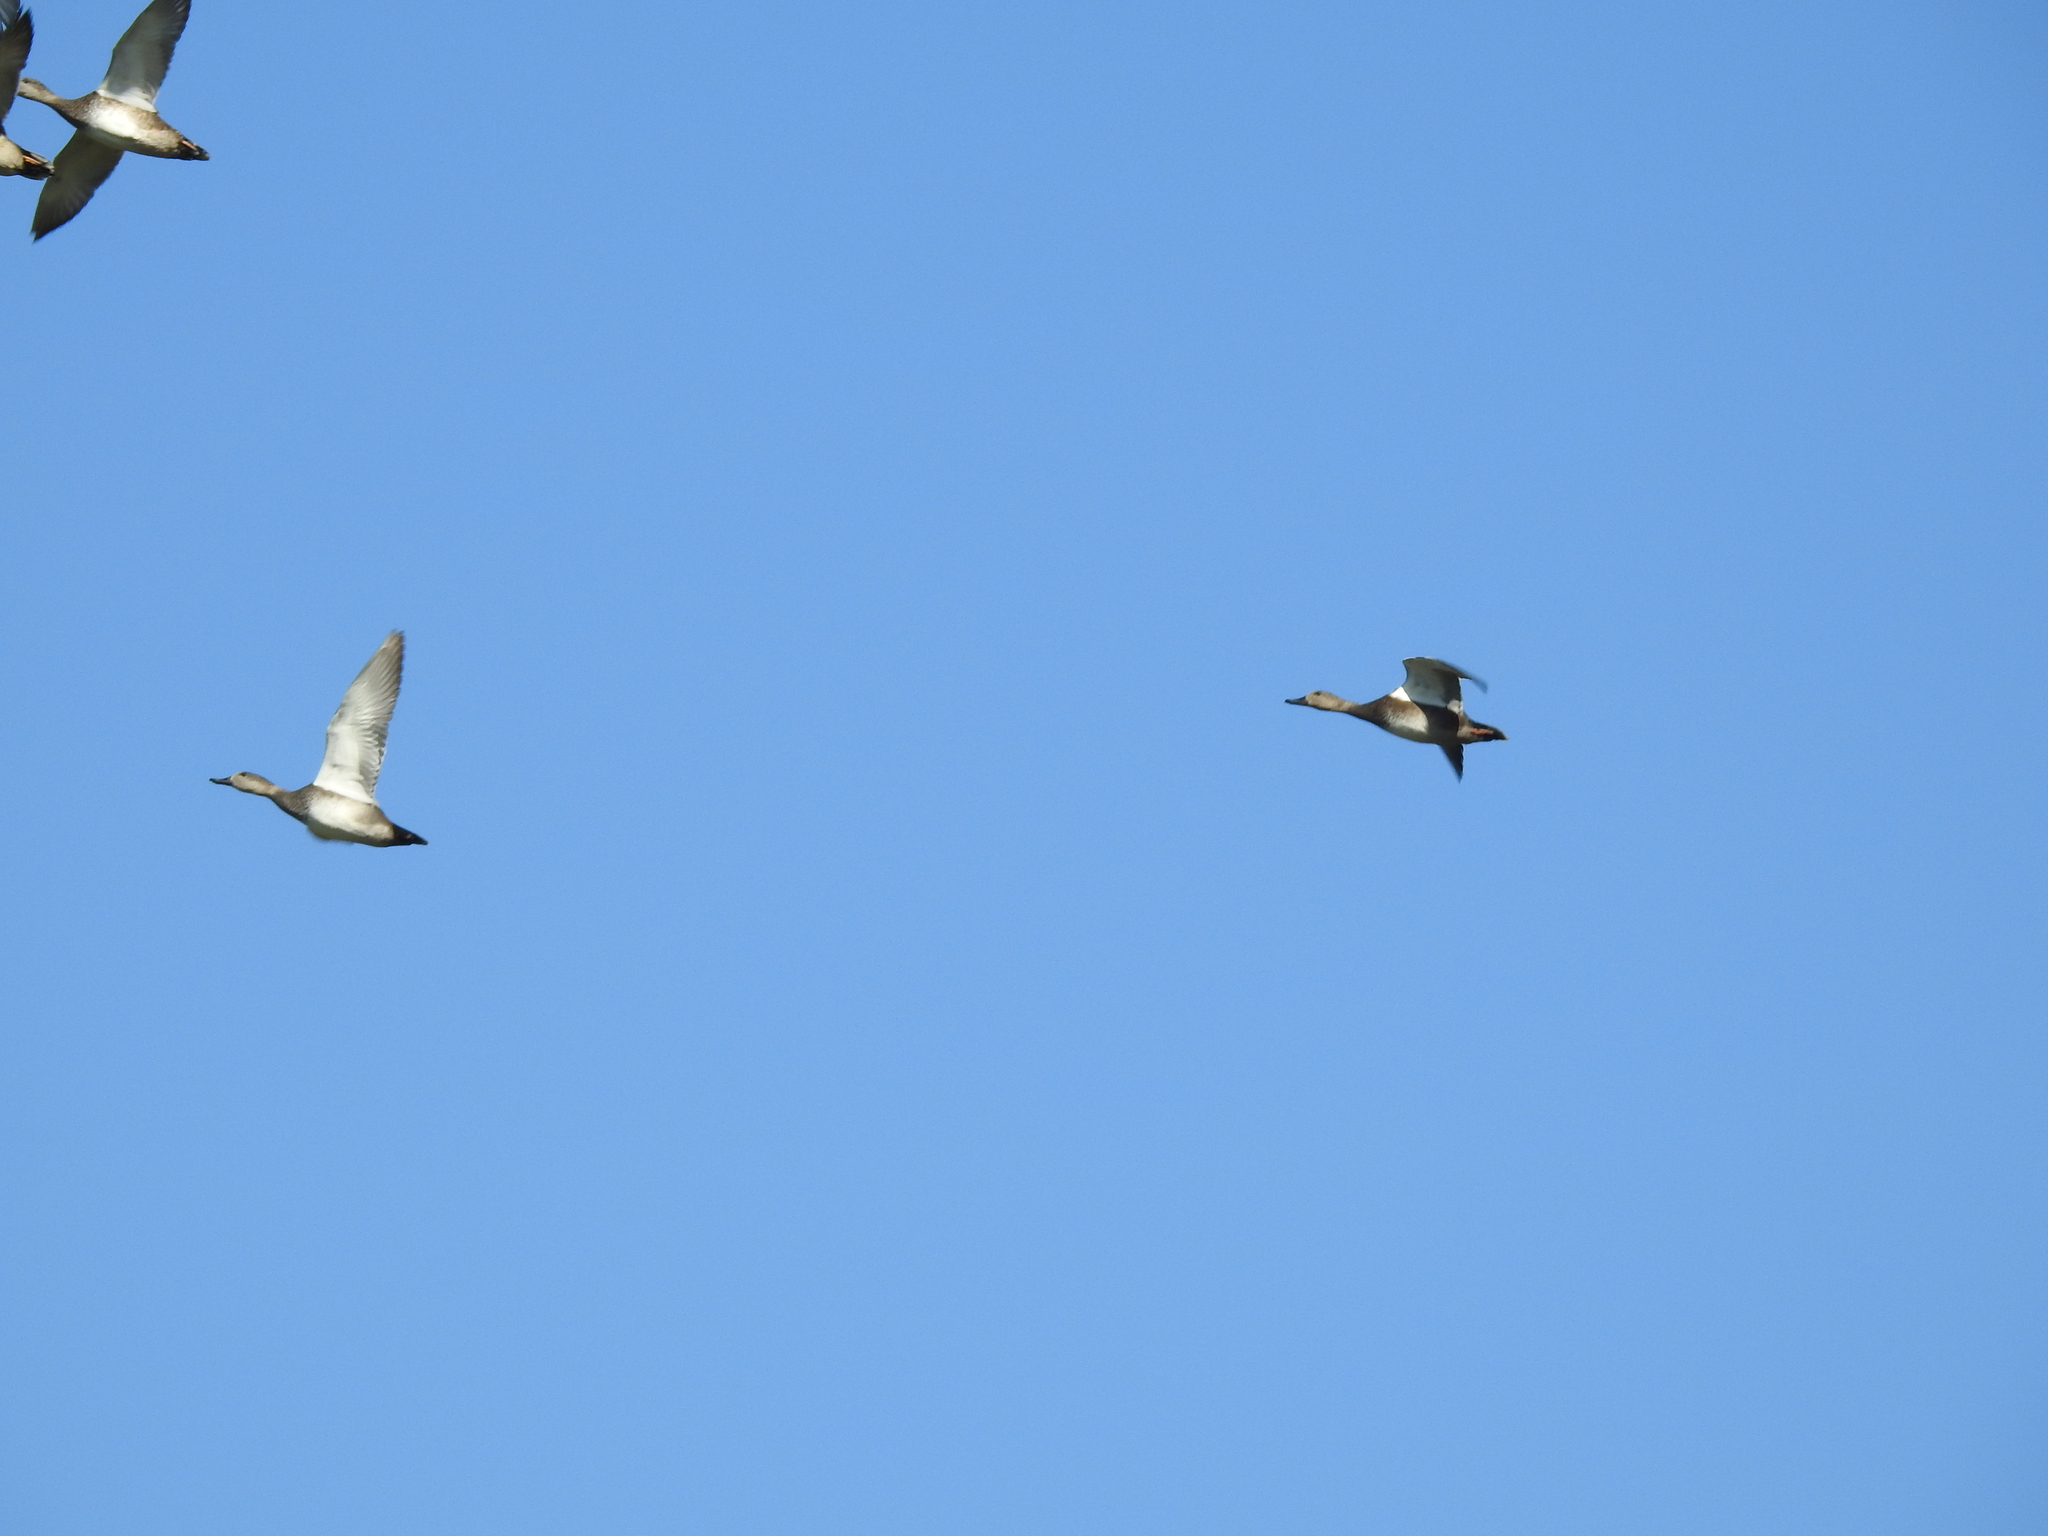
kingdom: Animalia
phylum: Chordata
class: Aves
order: Anseriformes
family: Anatidae
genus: Mareca
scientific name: Mareca strepera
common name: Gadwall
